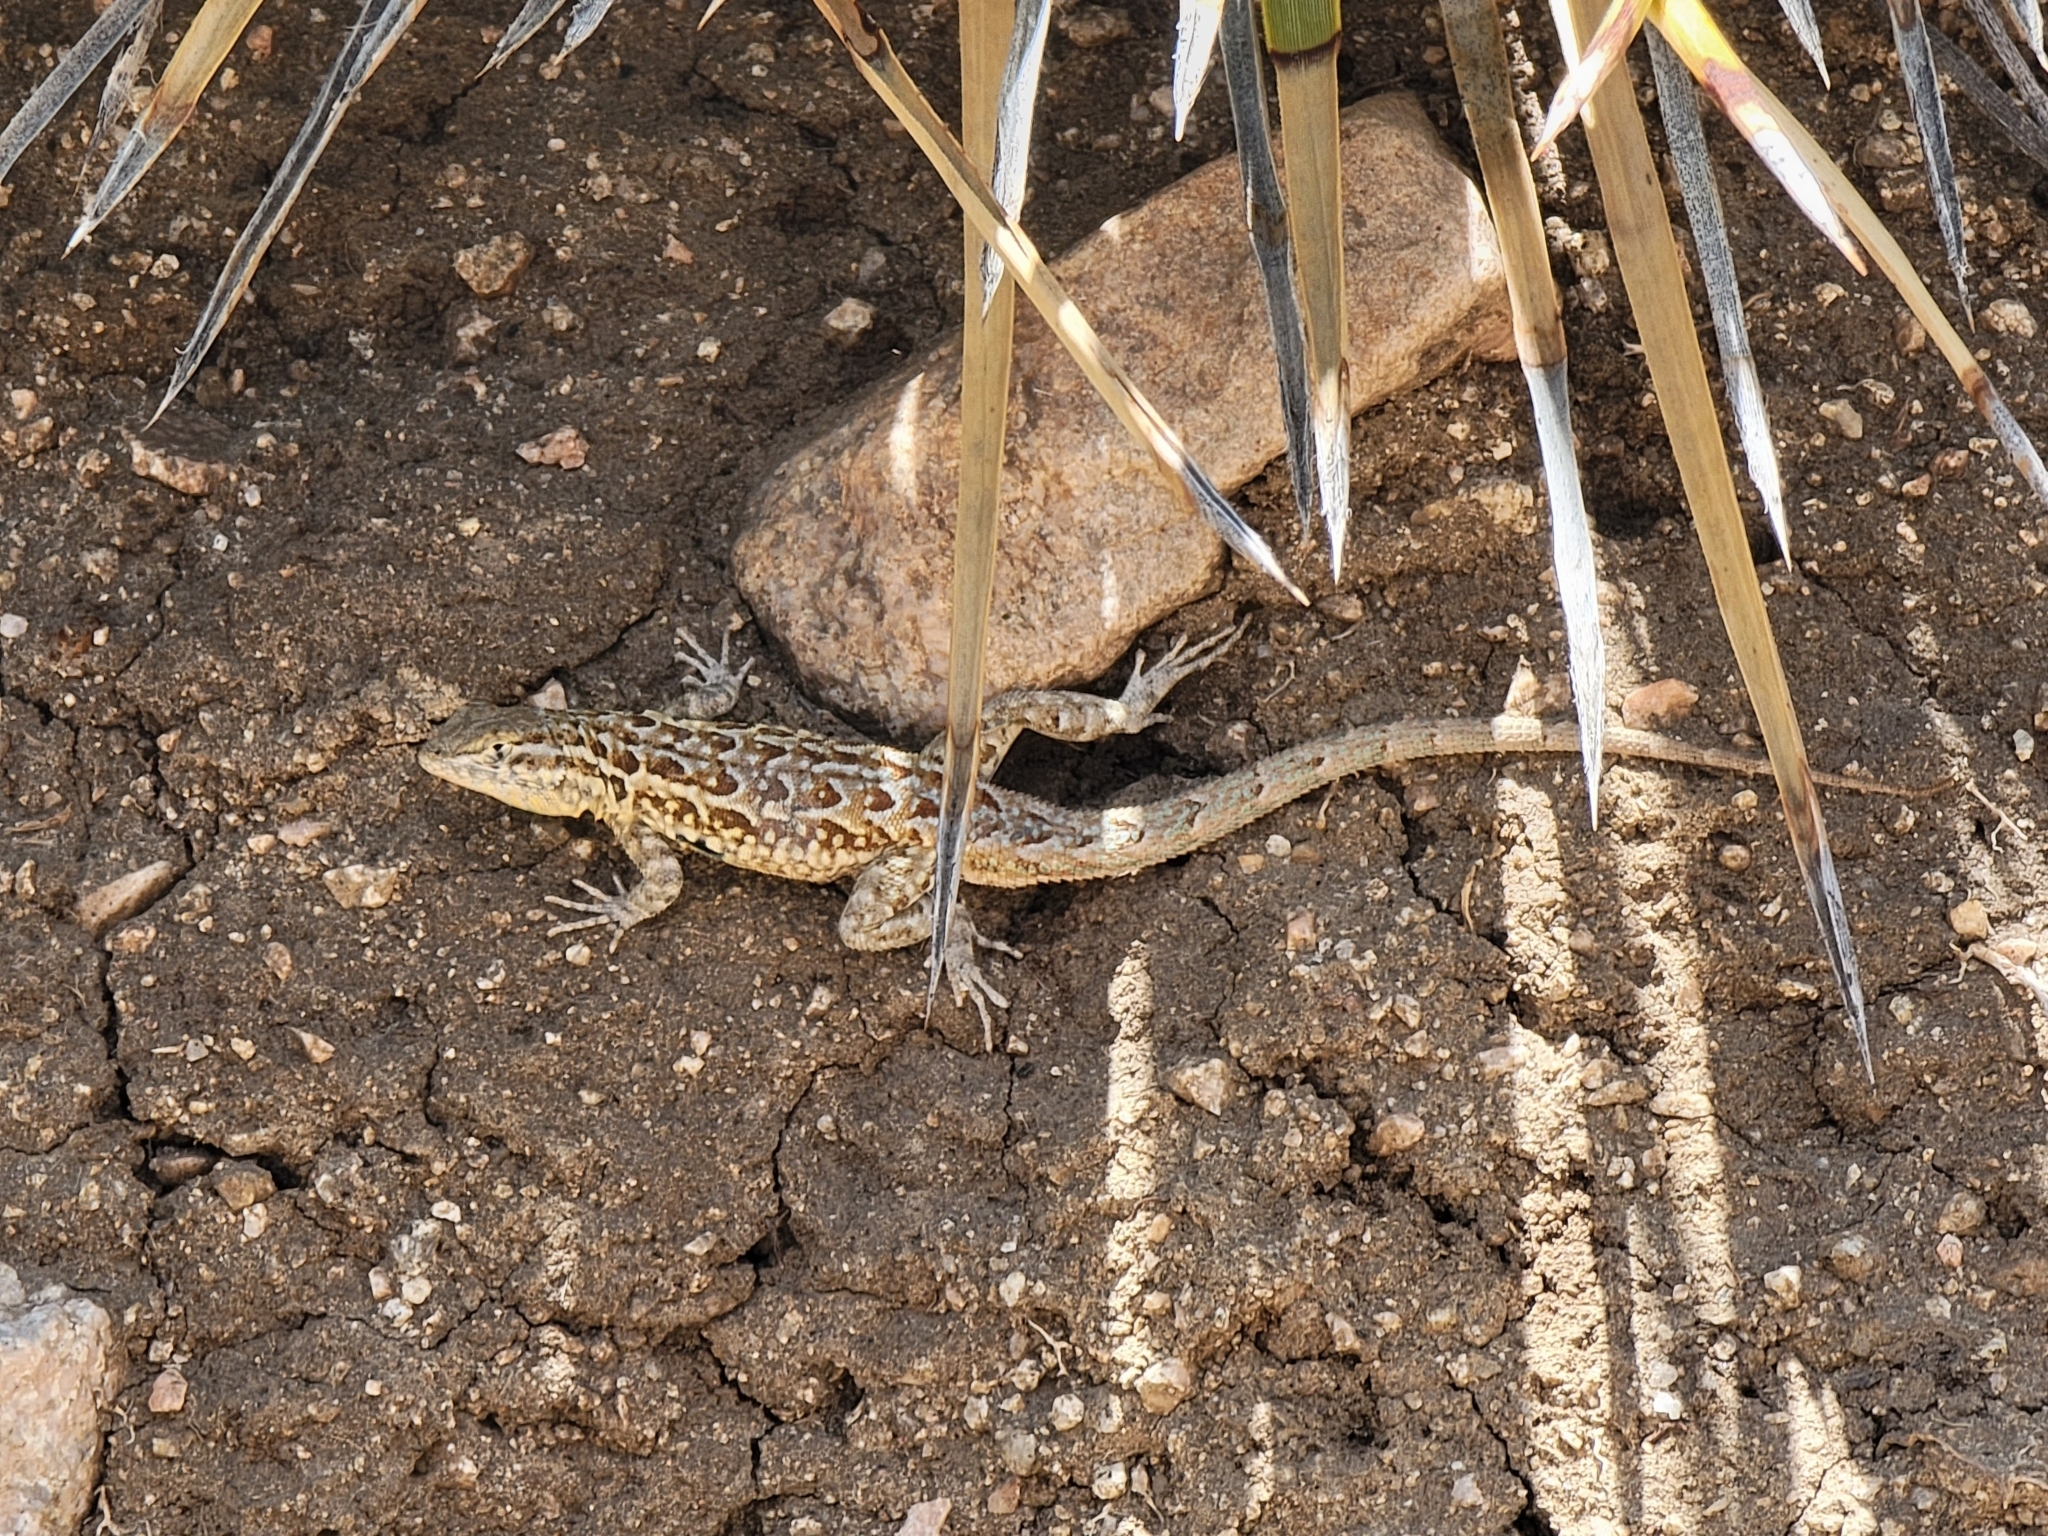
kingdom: Animalia
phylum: Chordata
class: Squamata
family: Phrynosomatidae
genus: Uta
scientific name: Uta stansburiana
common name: Side-blotched lizard
